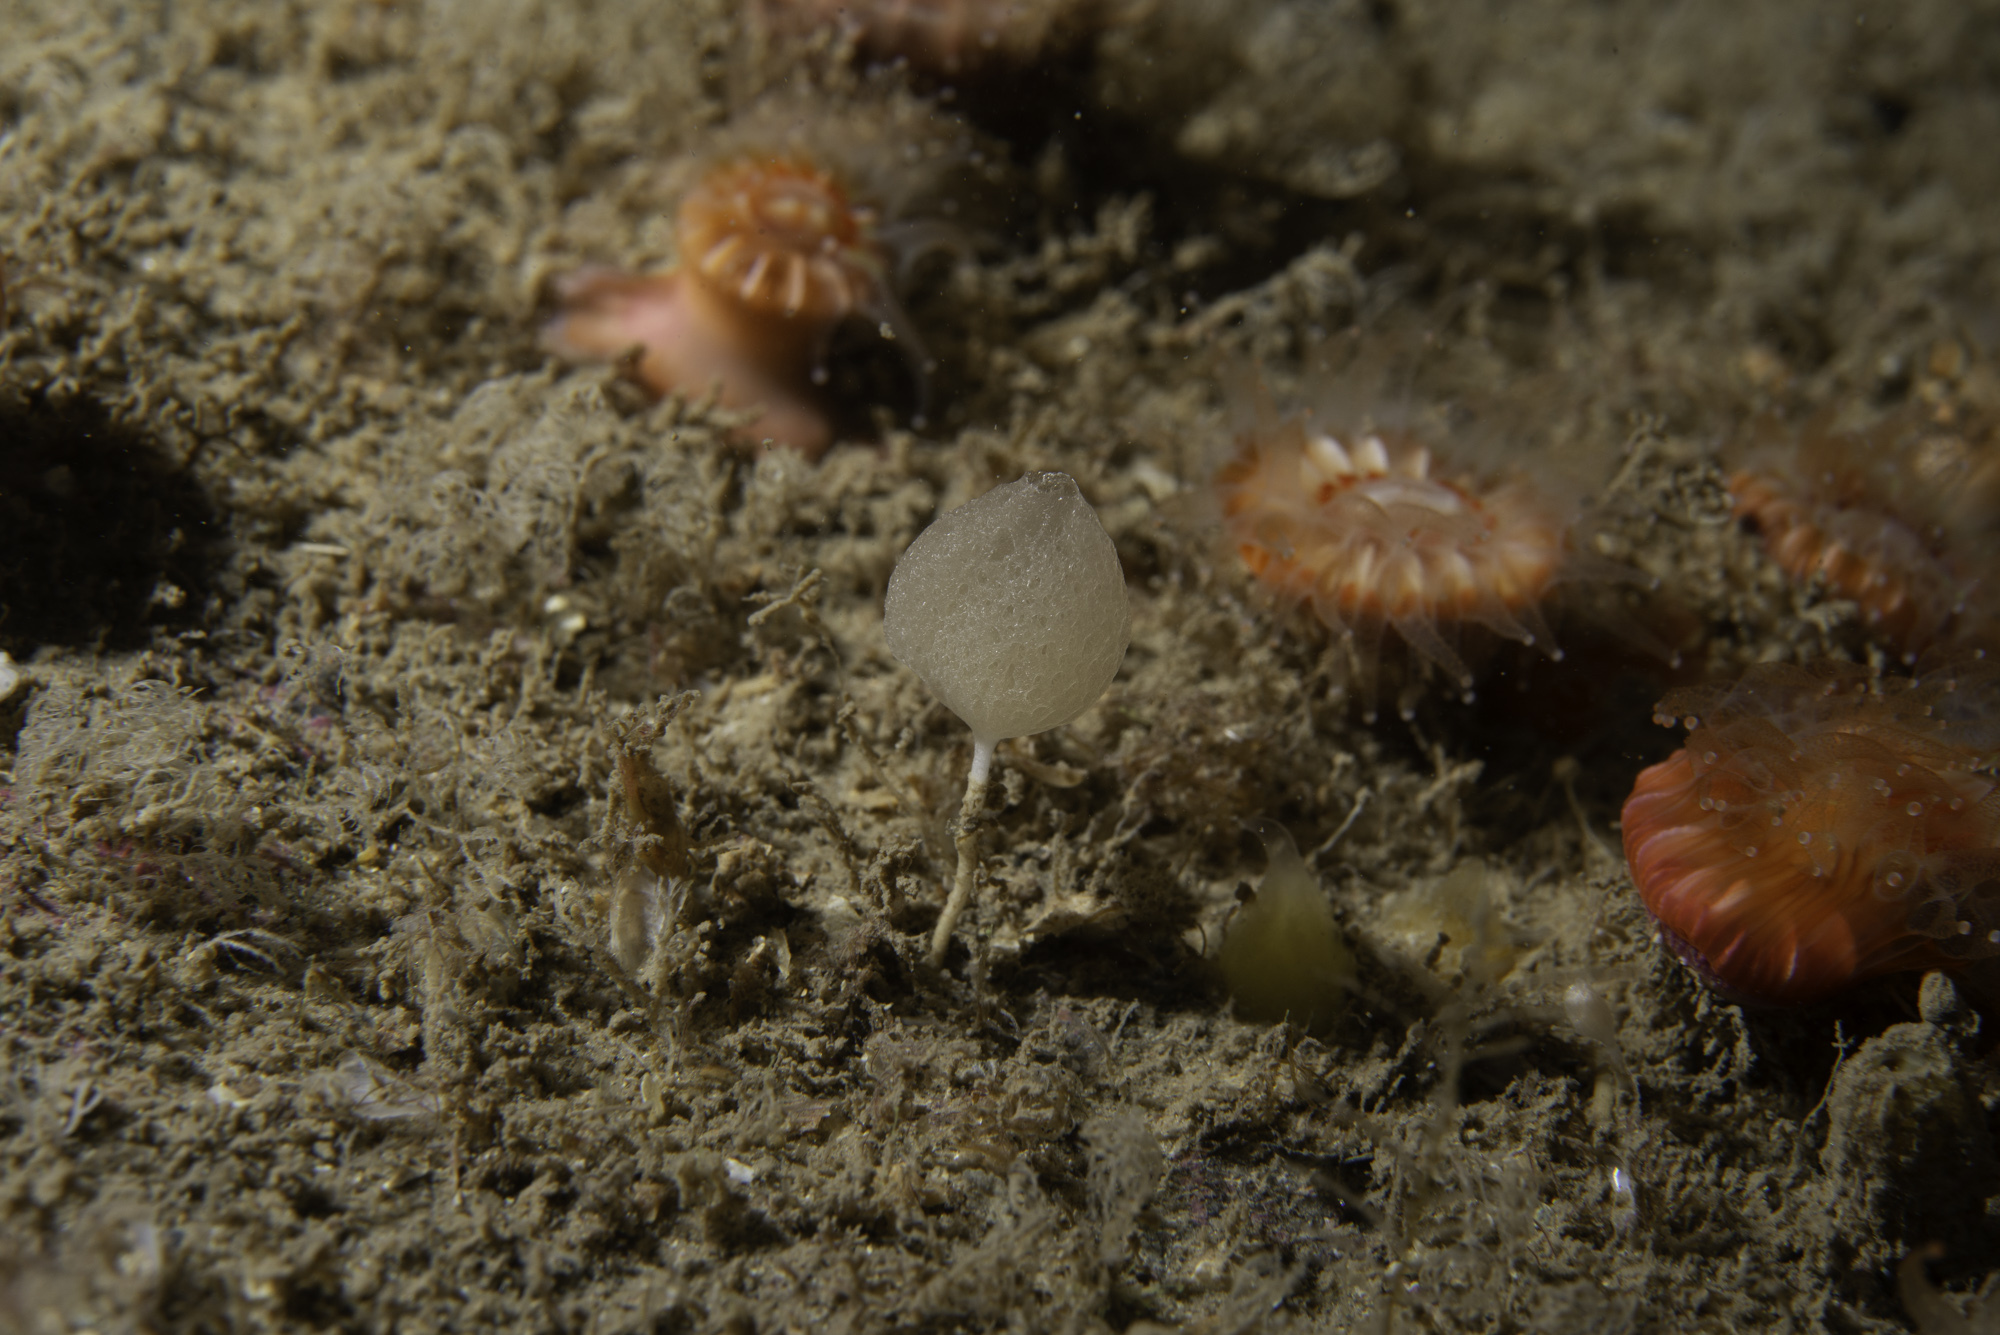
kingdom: Animalia
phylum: Porifera
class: Calcarea
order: Clathrinida
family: Clathrinidae
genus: Clathrina
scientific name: Clathrina lacunosa
